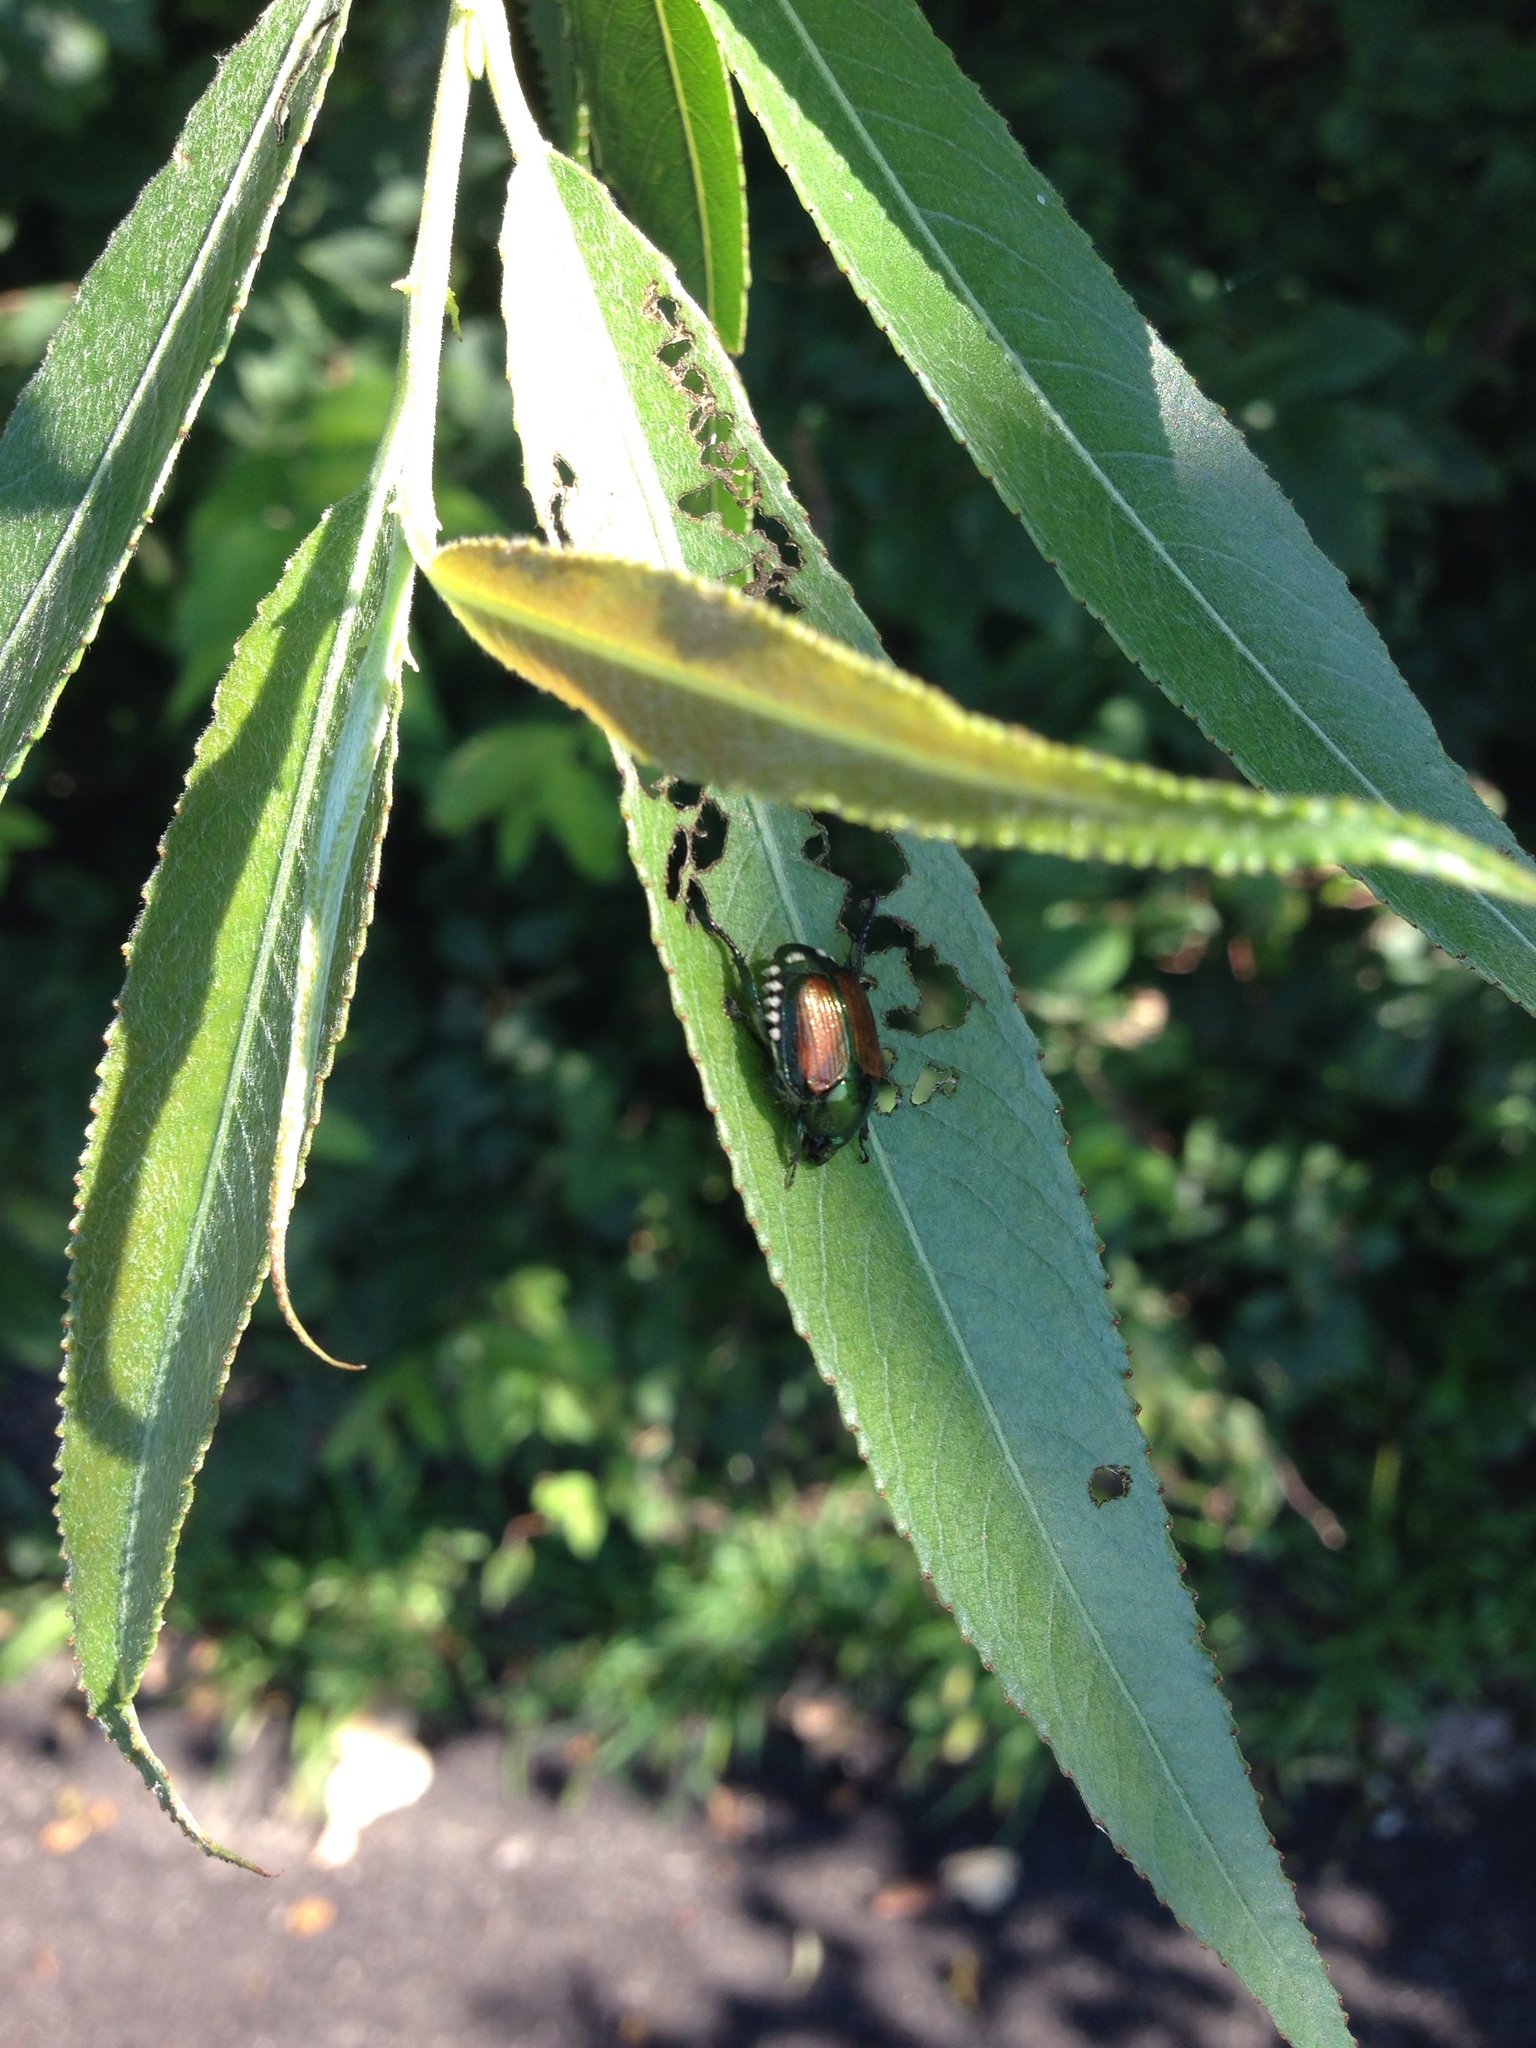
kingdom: Animalia
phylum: Arthropoda
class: Insecta
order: Coleoptera
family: Scarabaeidae
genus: Popillia
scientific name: Popillia japonica
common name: Japanese beetle
